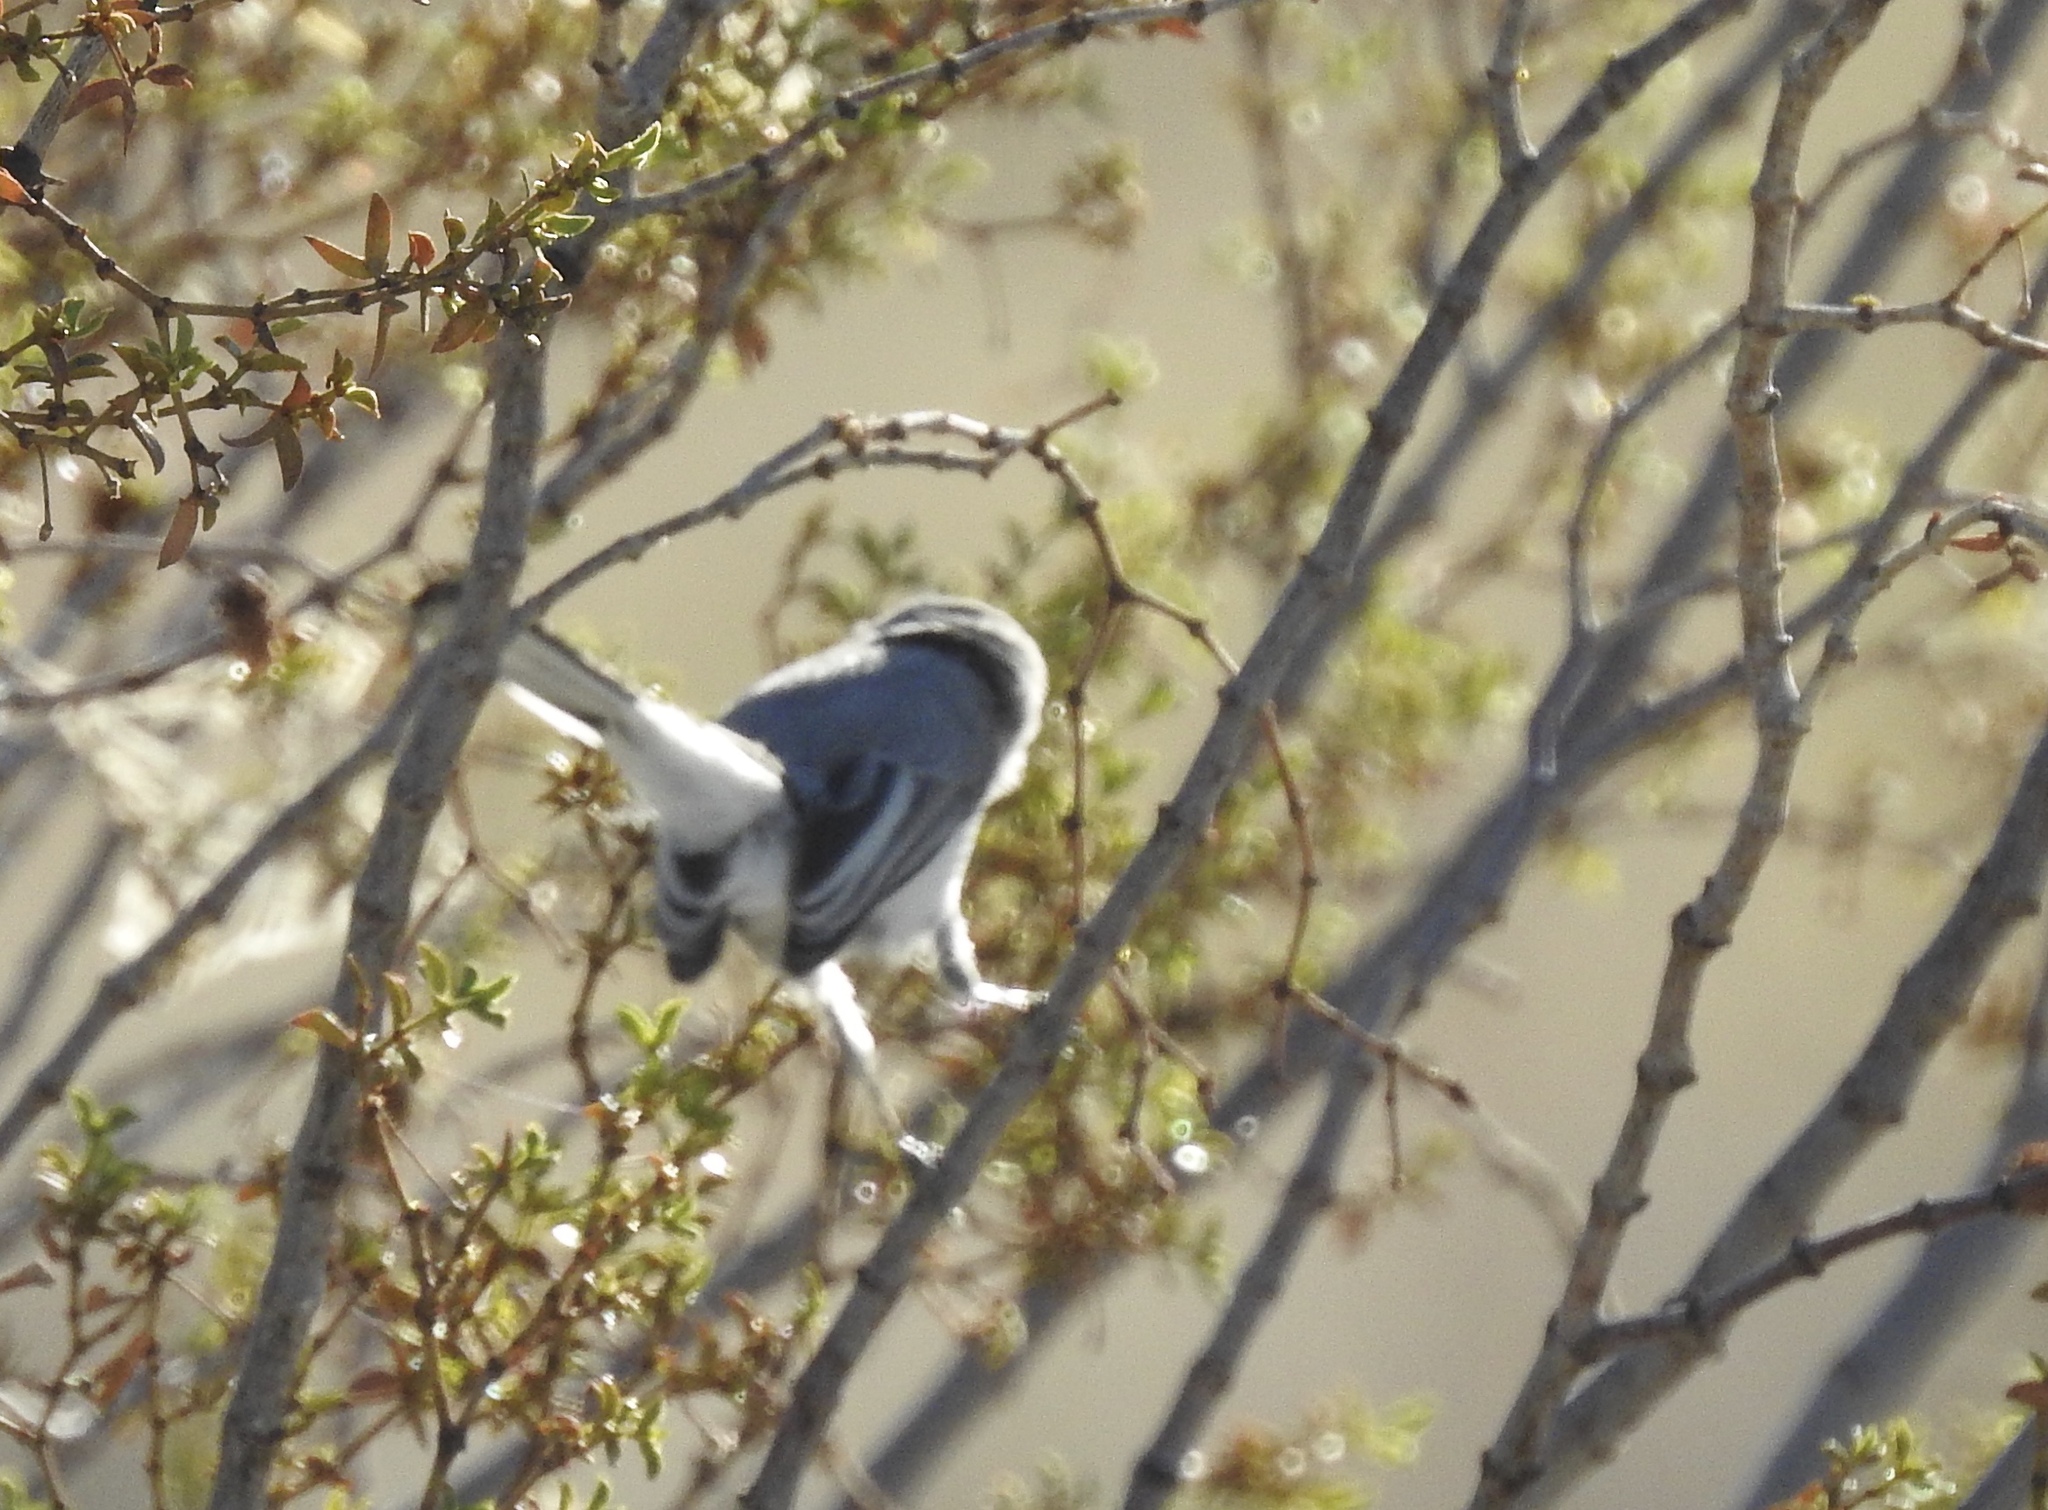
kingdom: Animalia
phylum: Chordata
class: Aves
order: Passeriformes
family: Polioptilidae
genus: Polioptila
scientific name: Polioptila caerulea
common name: Blue-gray gnatcatcher
